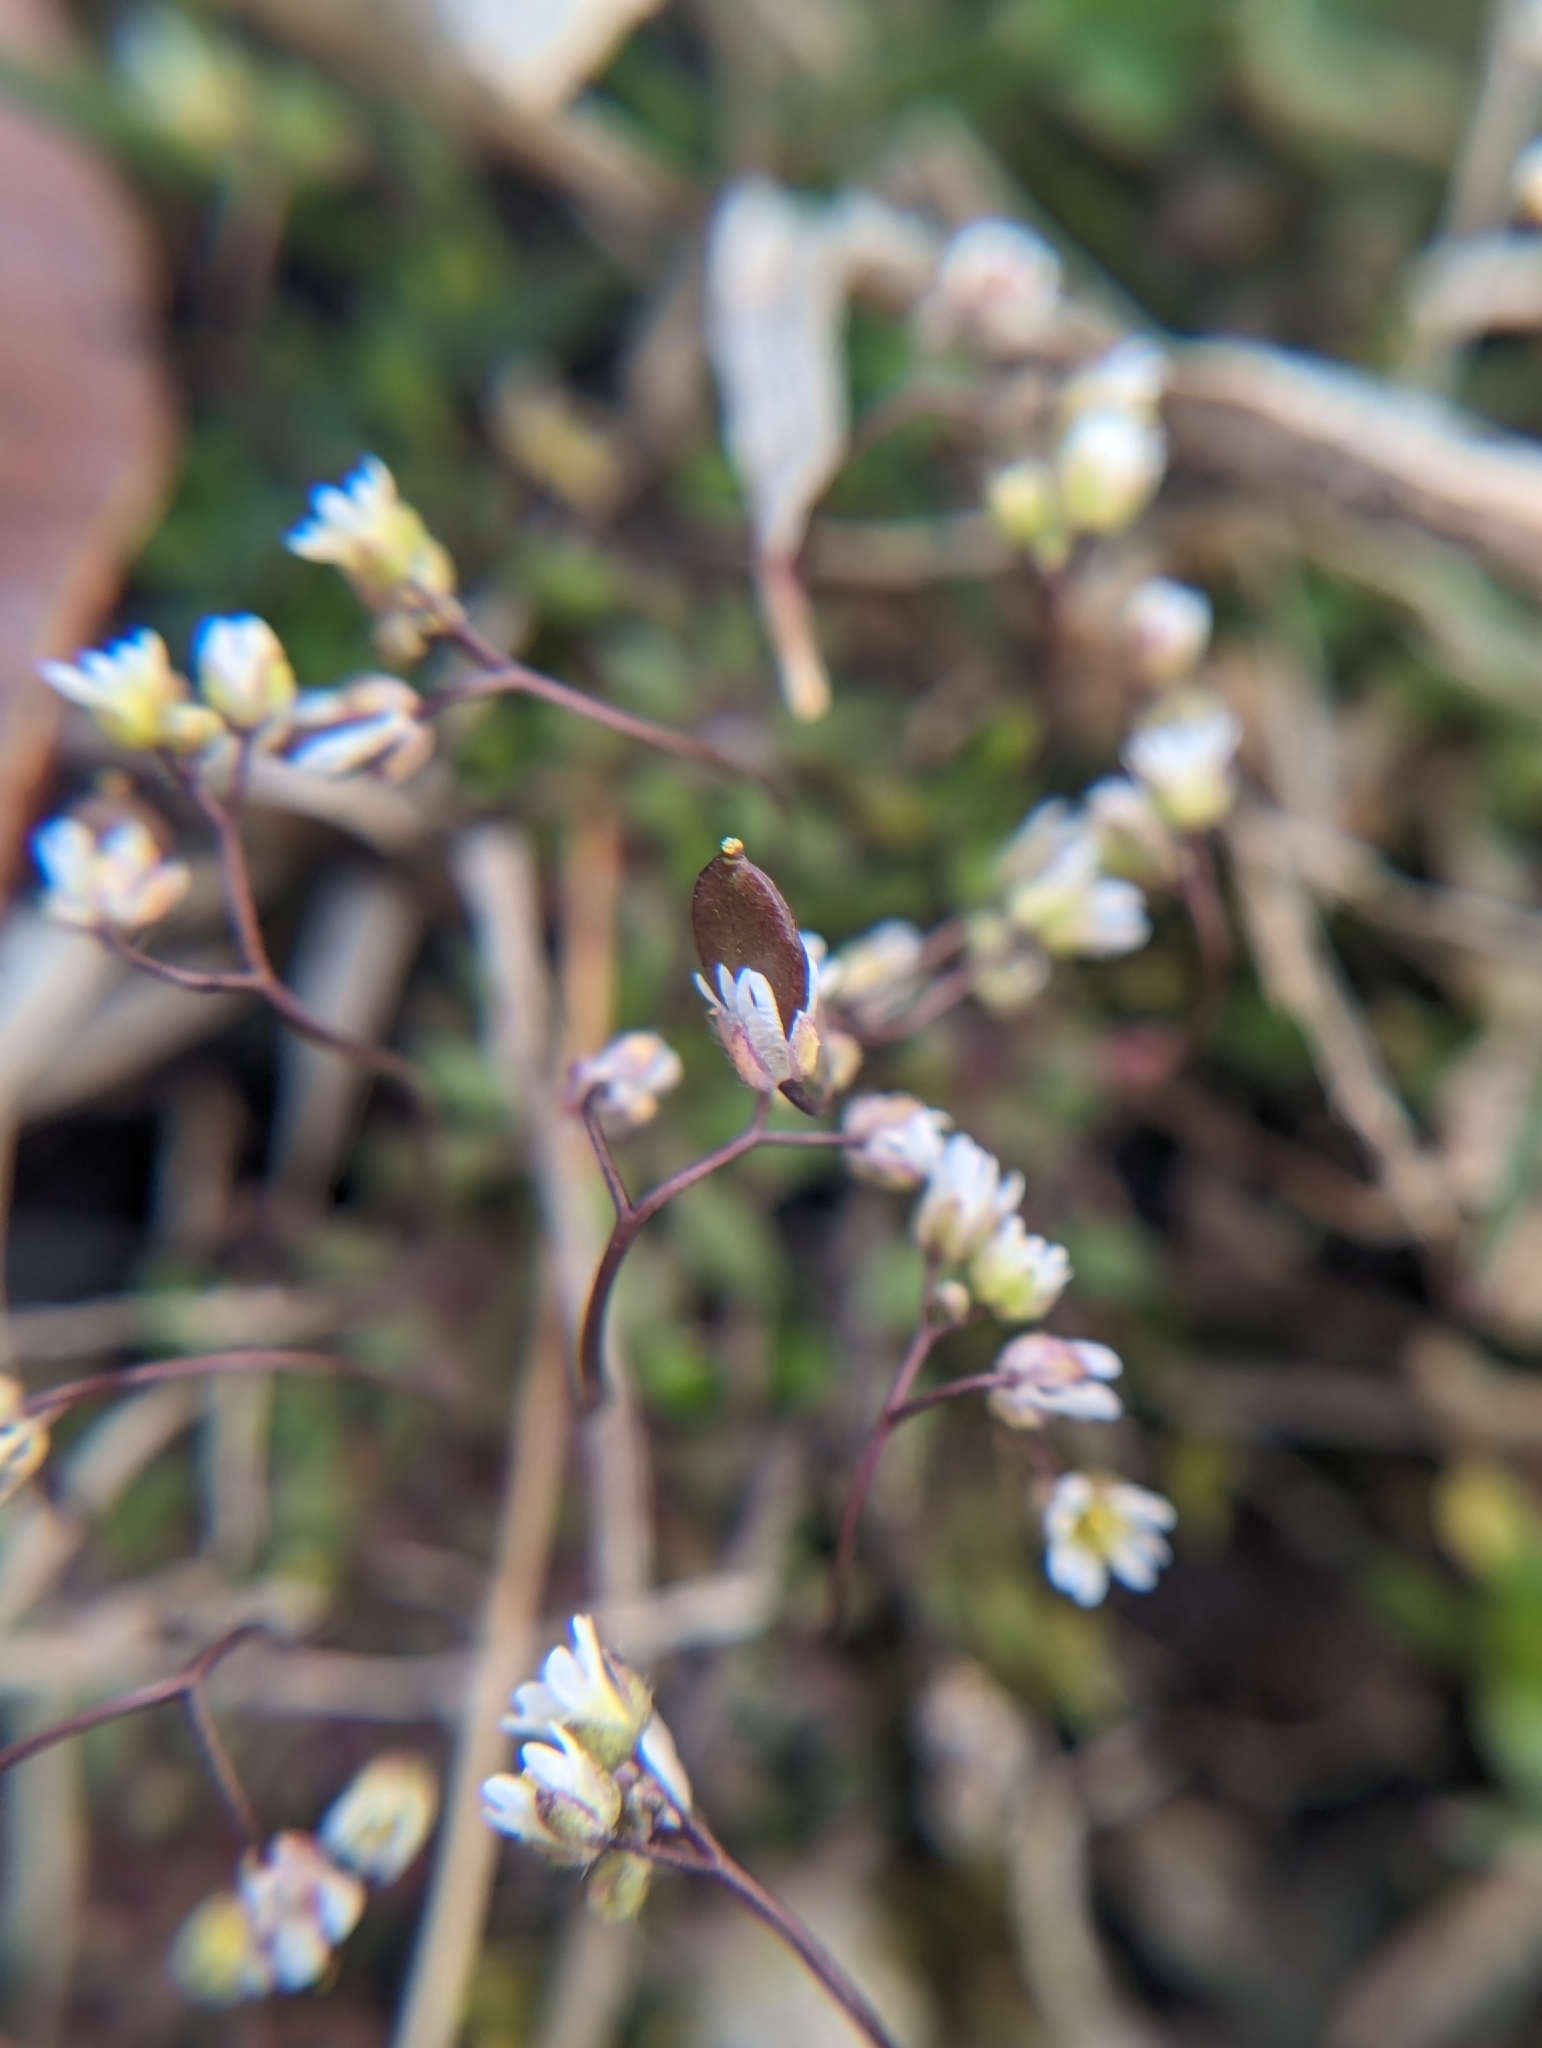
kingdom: Plantae
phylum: Tracheophyta
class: Magnoliopsida
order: Brassicales
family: Brassicaceae
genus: Draba
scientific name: Draba verna
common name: Spring draba
